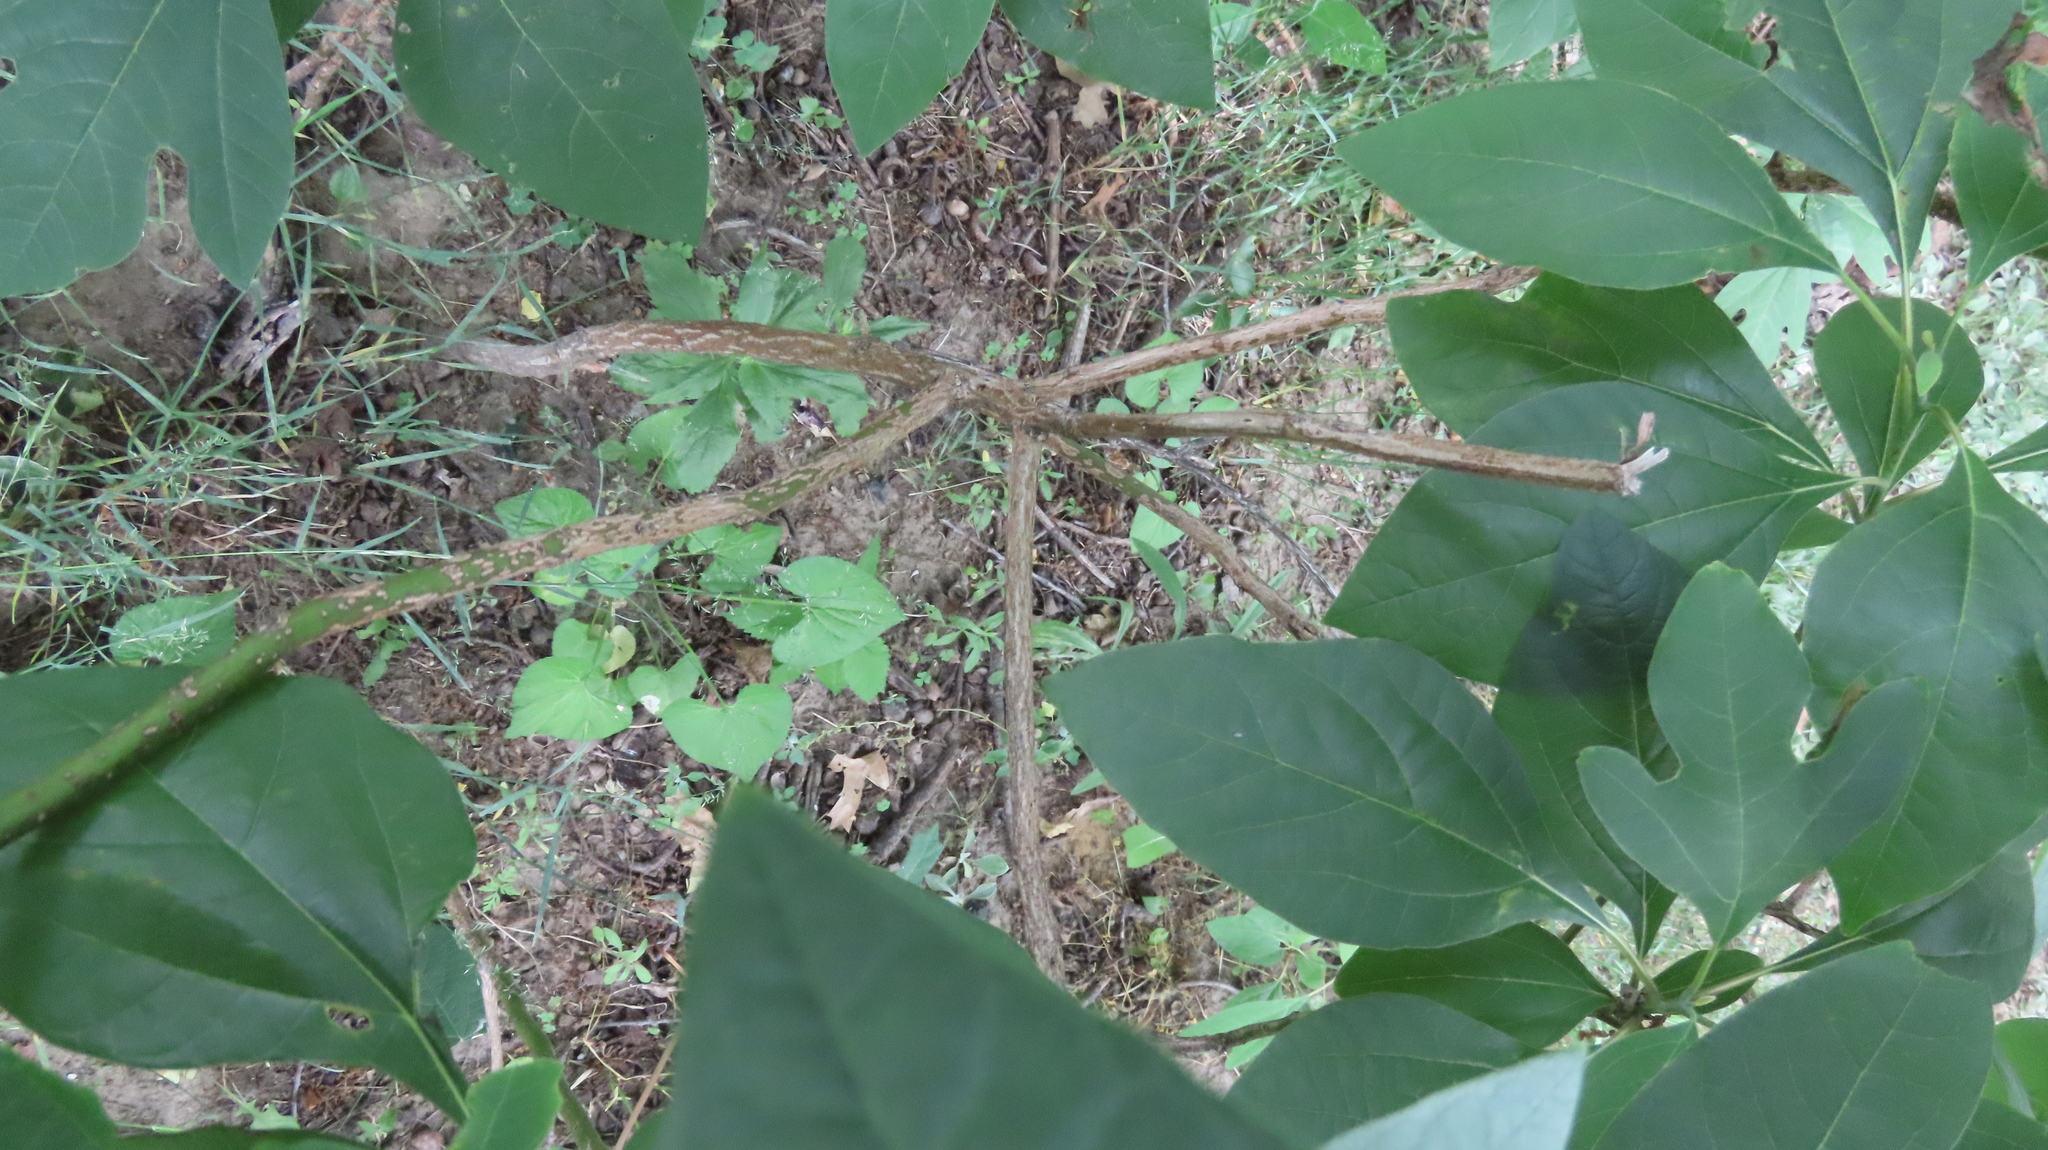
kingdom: Plantae
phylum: Tracheophyta
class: Magnoliopsida
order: Laurales
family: Lauraceae
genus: Sassafras
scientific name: Sassafras albidum
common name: Sassafras
